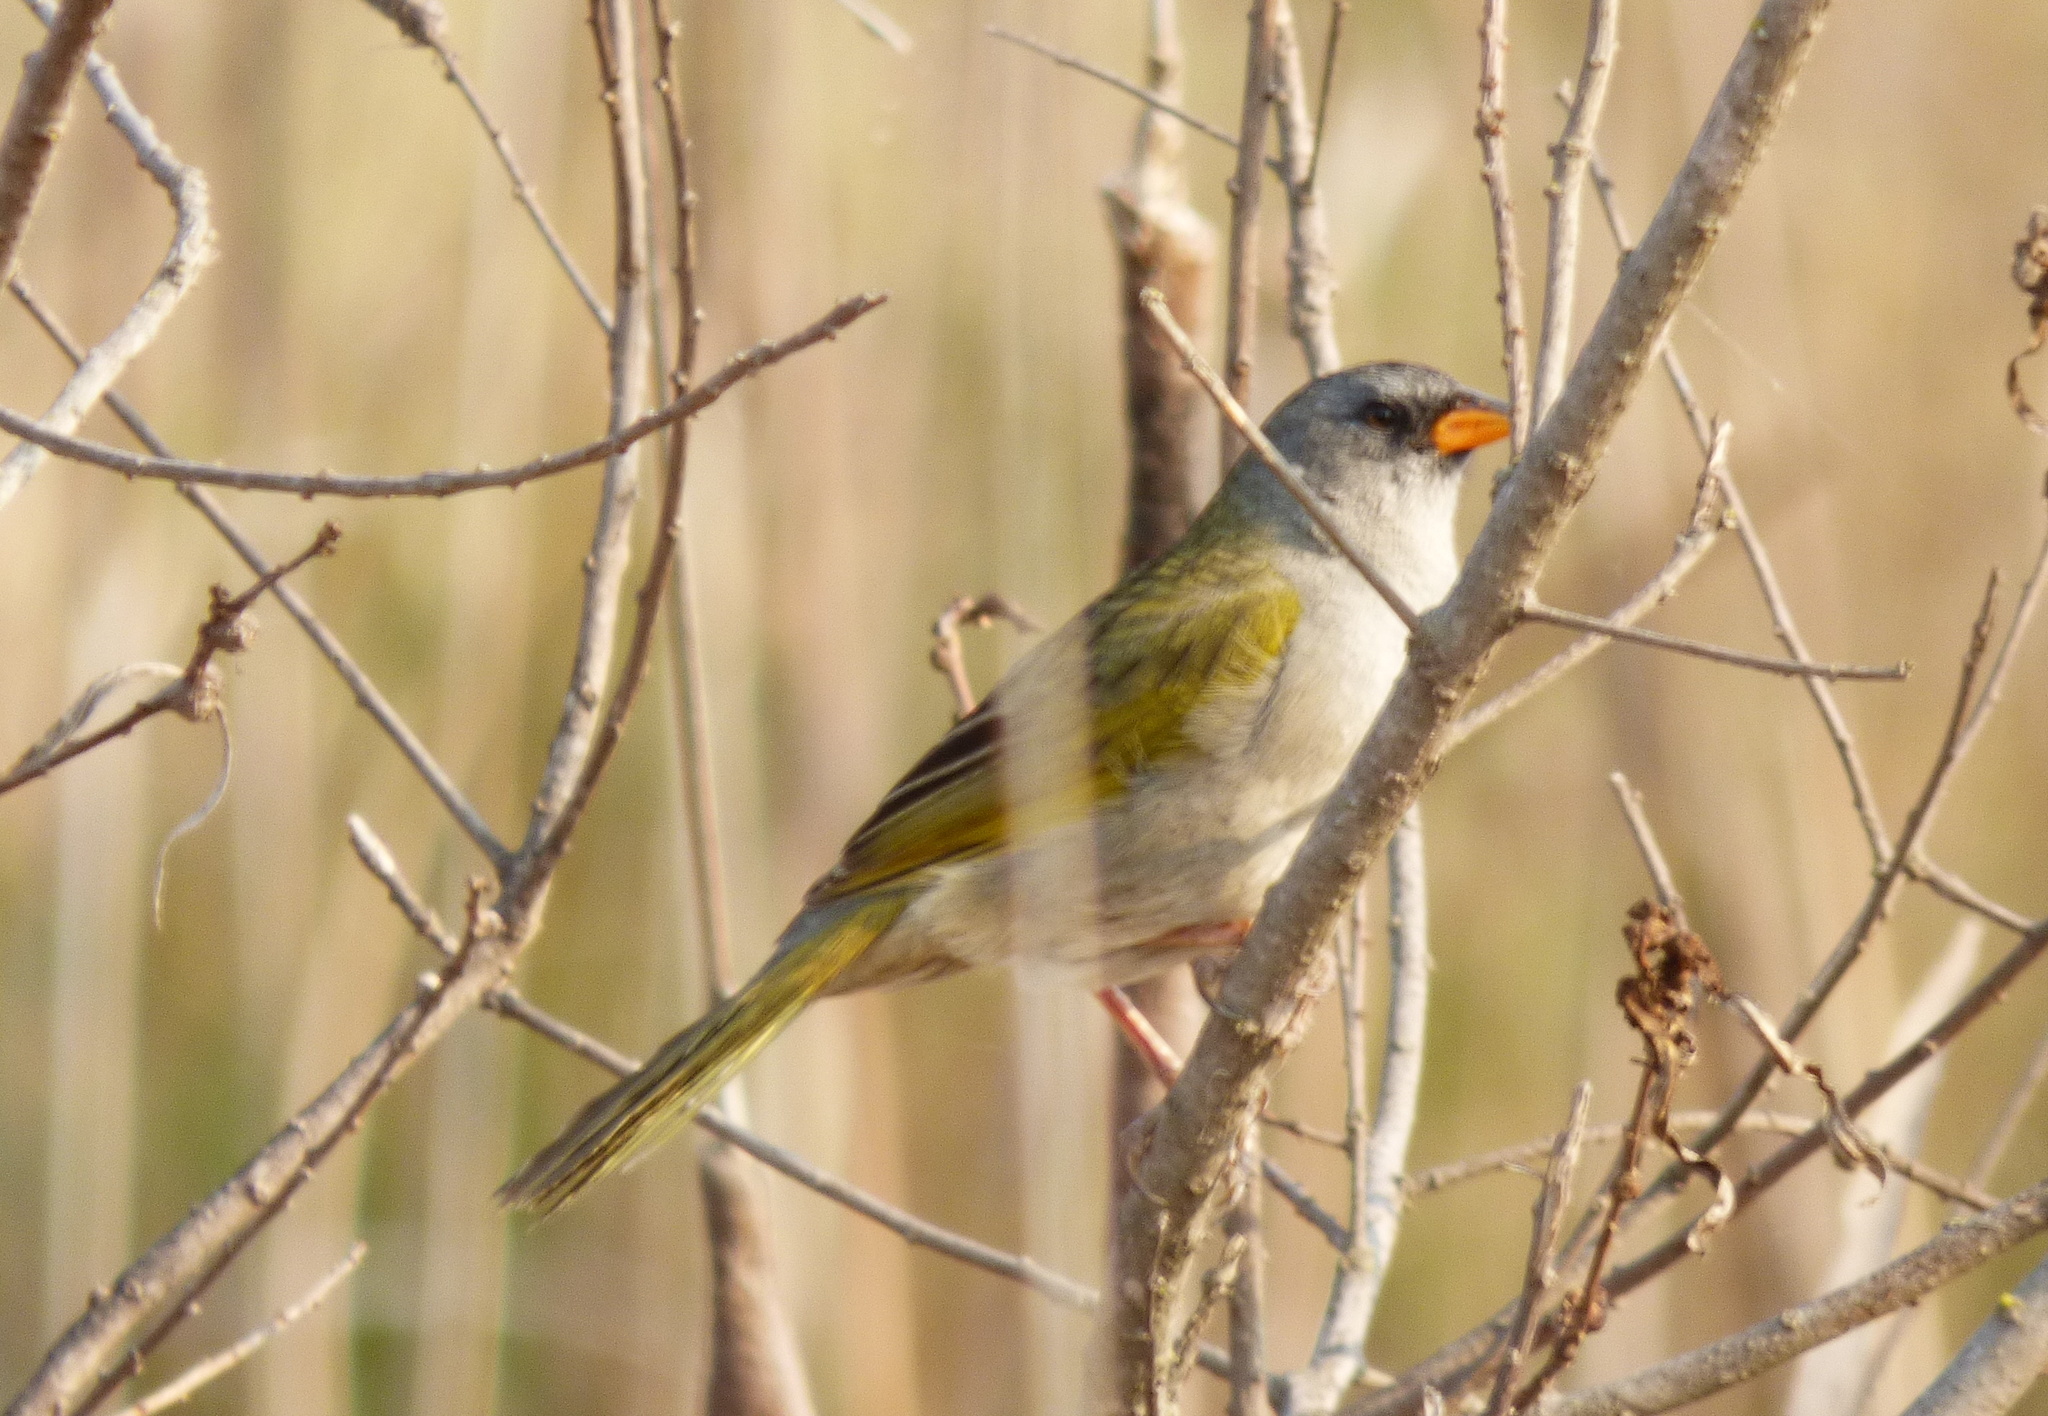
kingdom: Animalia
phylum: Chordata
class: Aves
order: Passeriformes
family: Thraupidae
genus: Embernagra
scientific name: Embernagra platensis
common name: Pampa finch
